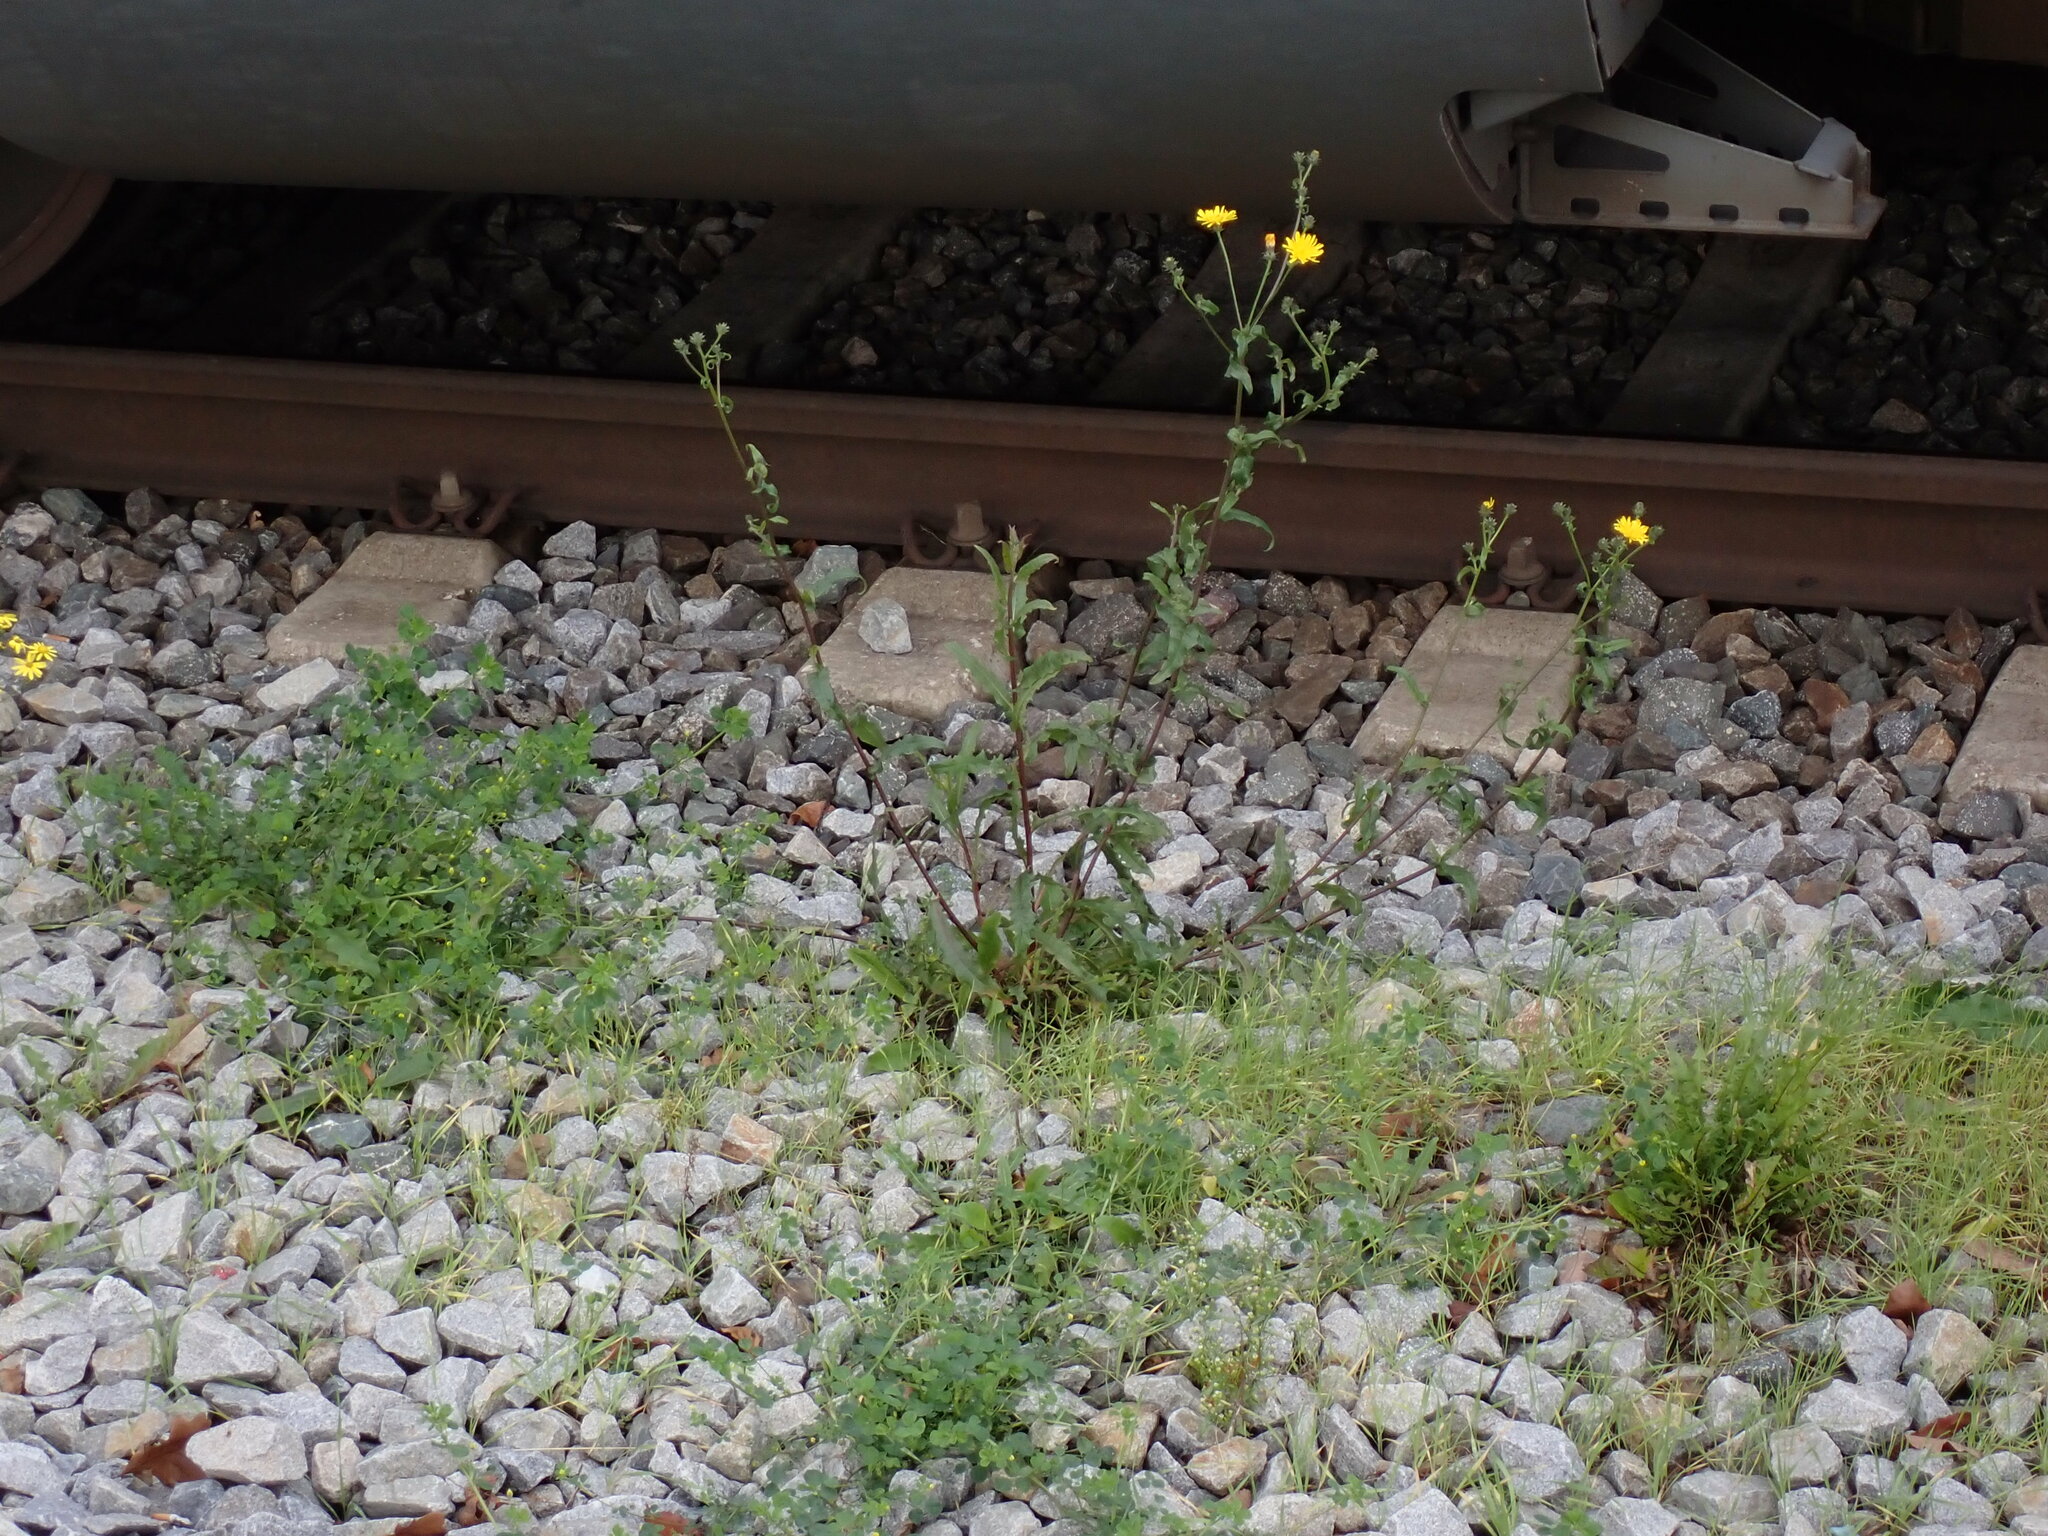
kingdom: Plantae
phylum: Tracheophyta
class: Magnoliopsida
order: Asterales
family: Asteraceae
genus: Picris
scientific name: Picris hieracioides
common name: Hawkweed oxtongue
